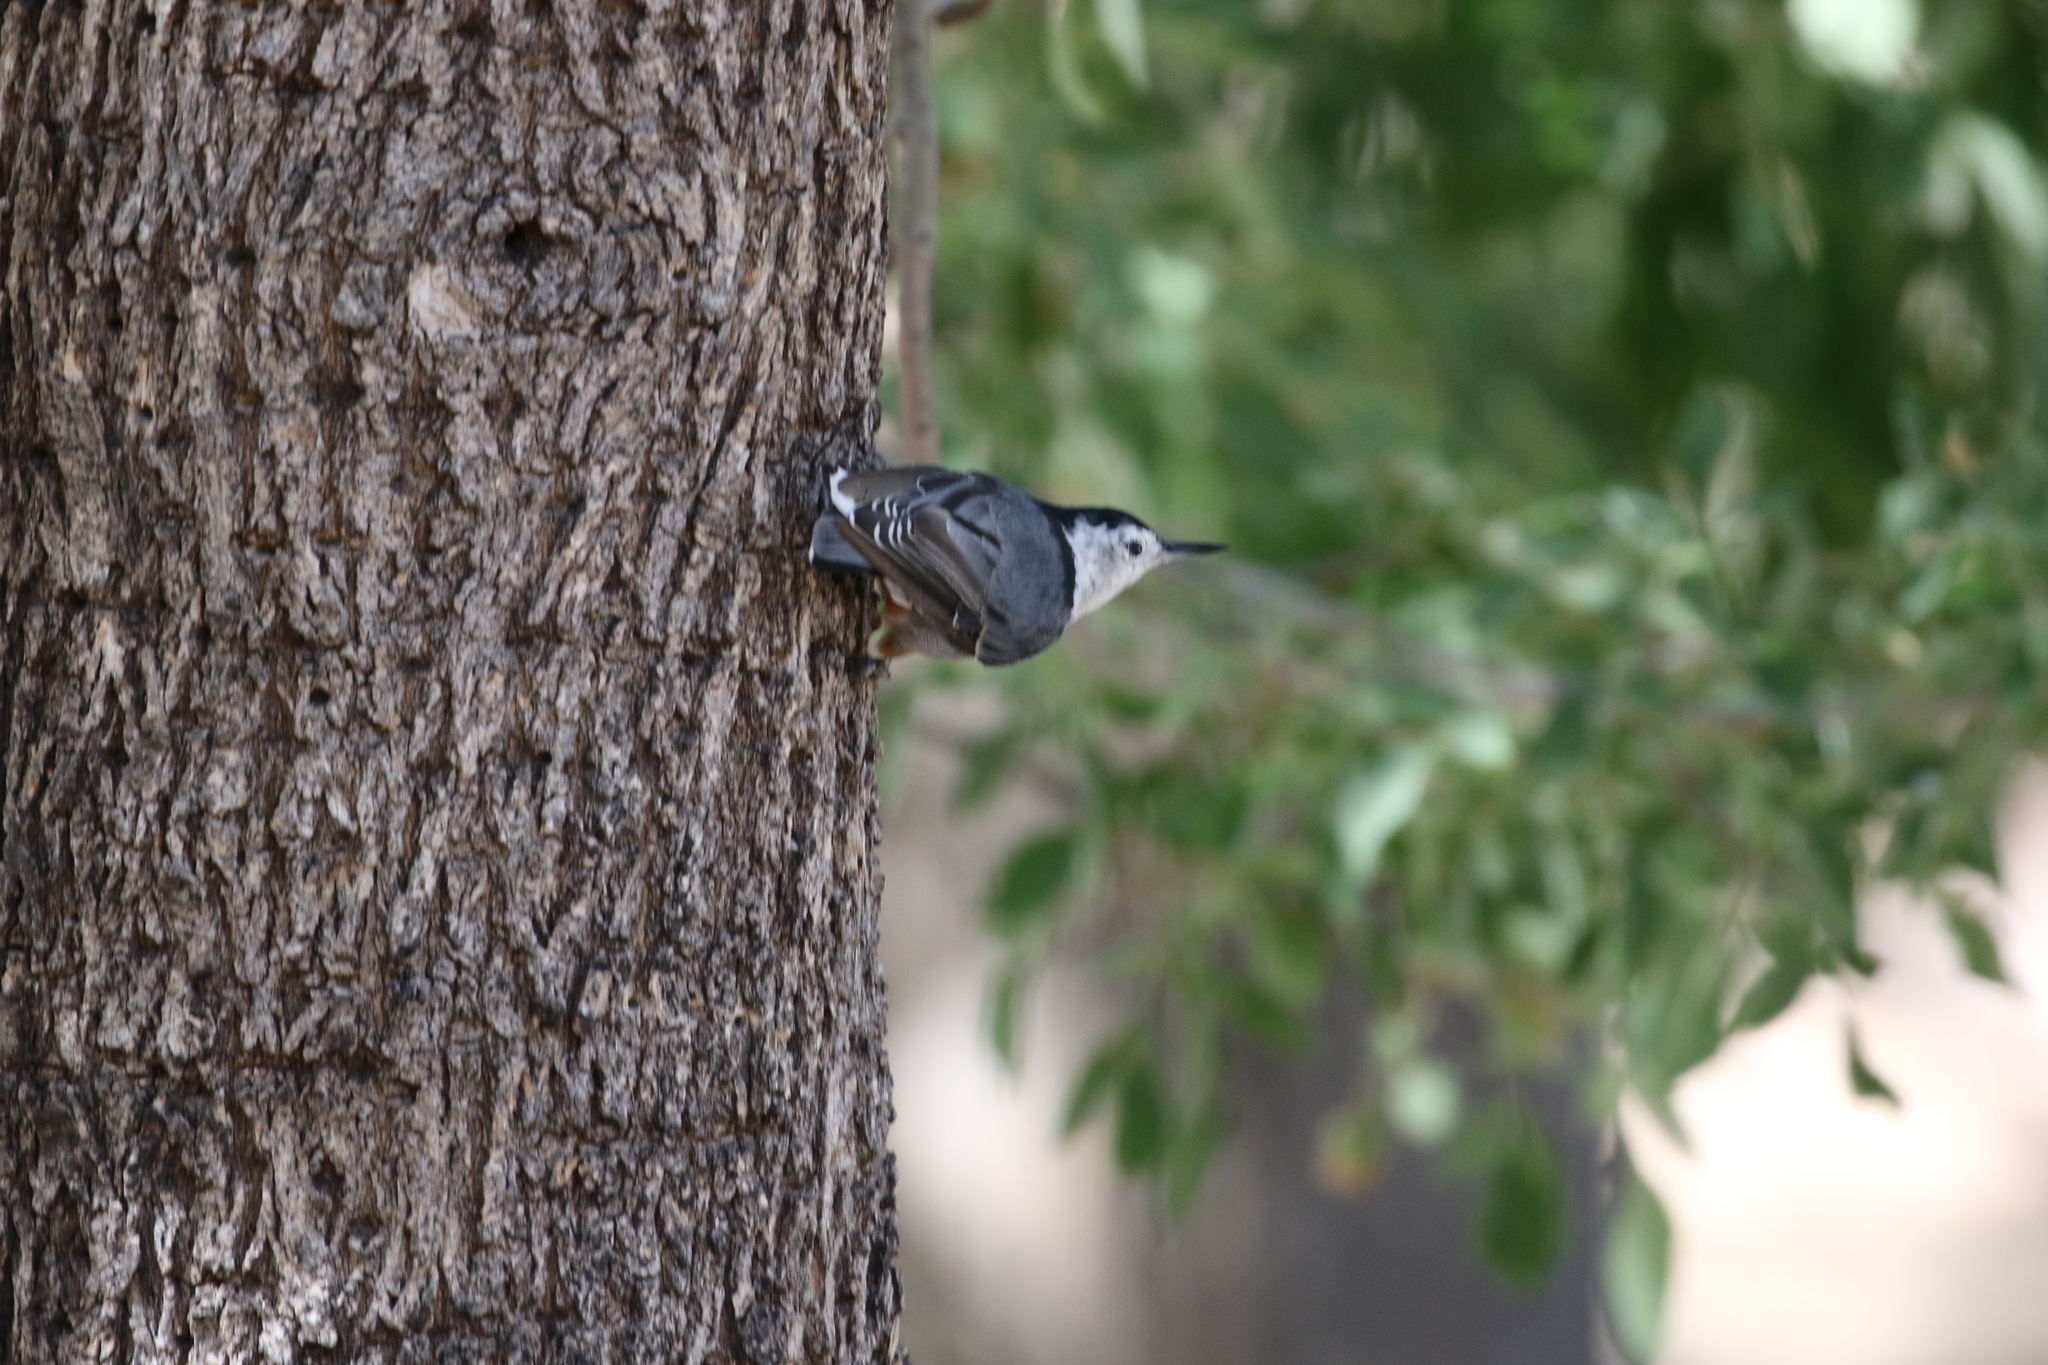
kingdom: Animalia
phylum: Chordata
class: Aves
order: Passeriformes
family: Sittidae
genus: Sitta
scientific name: Sitta carolinensis
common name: White-breasted nuthatch
